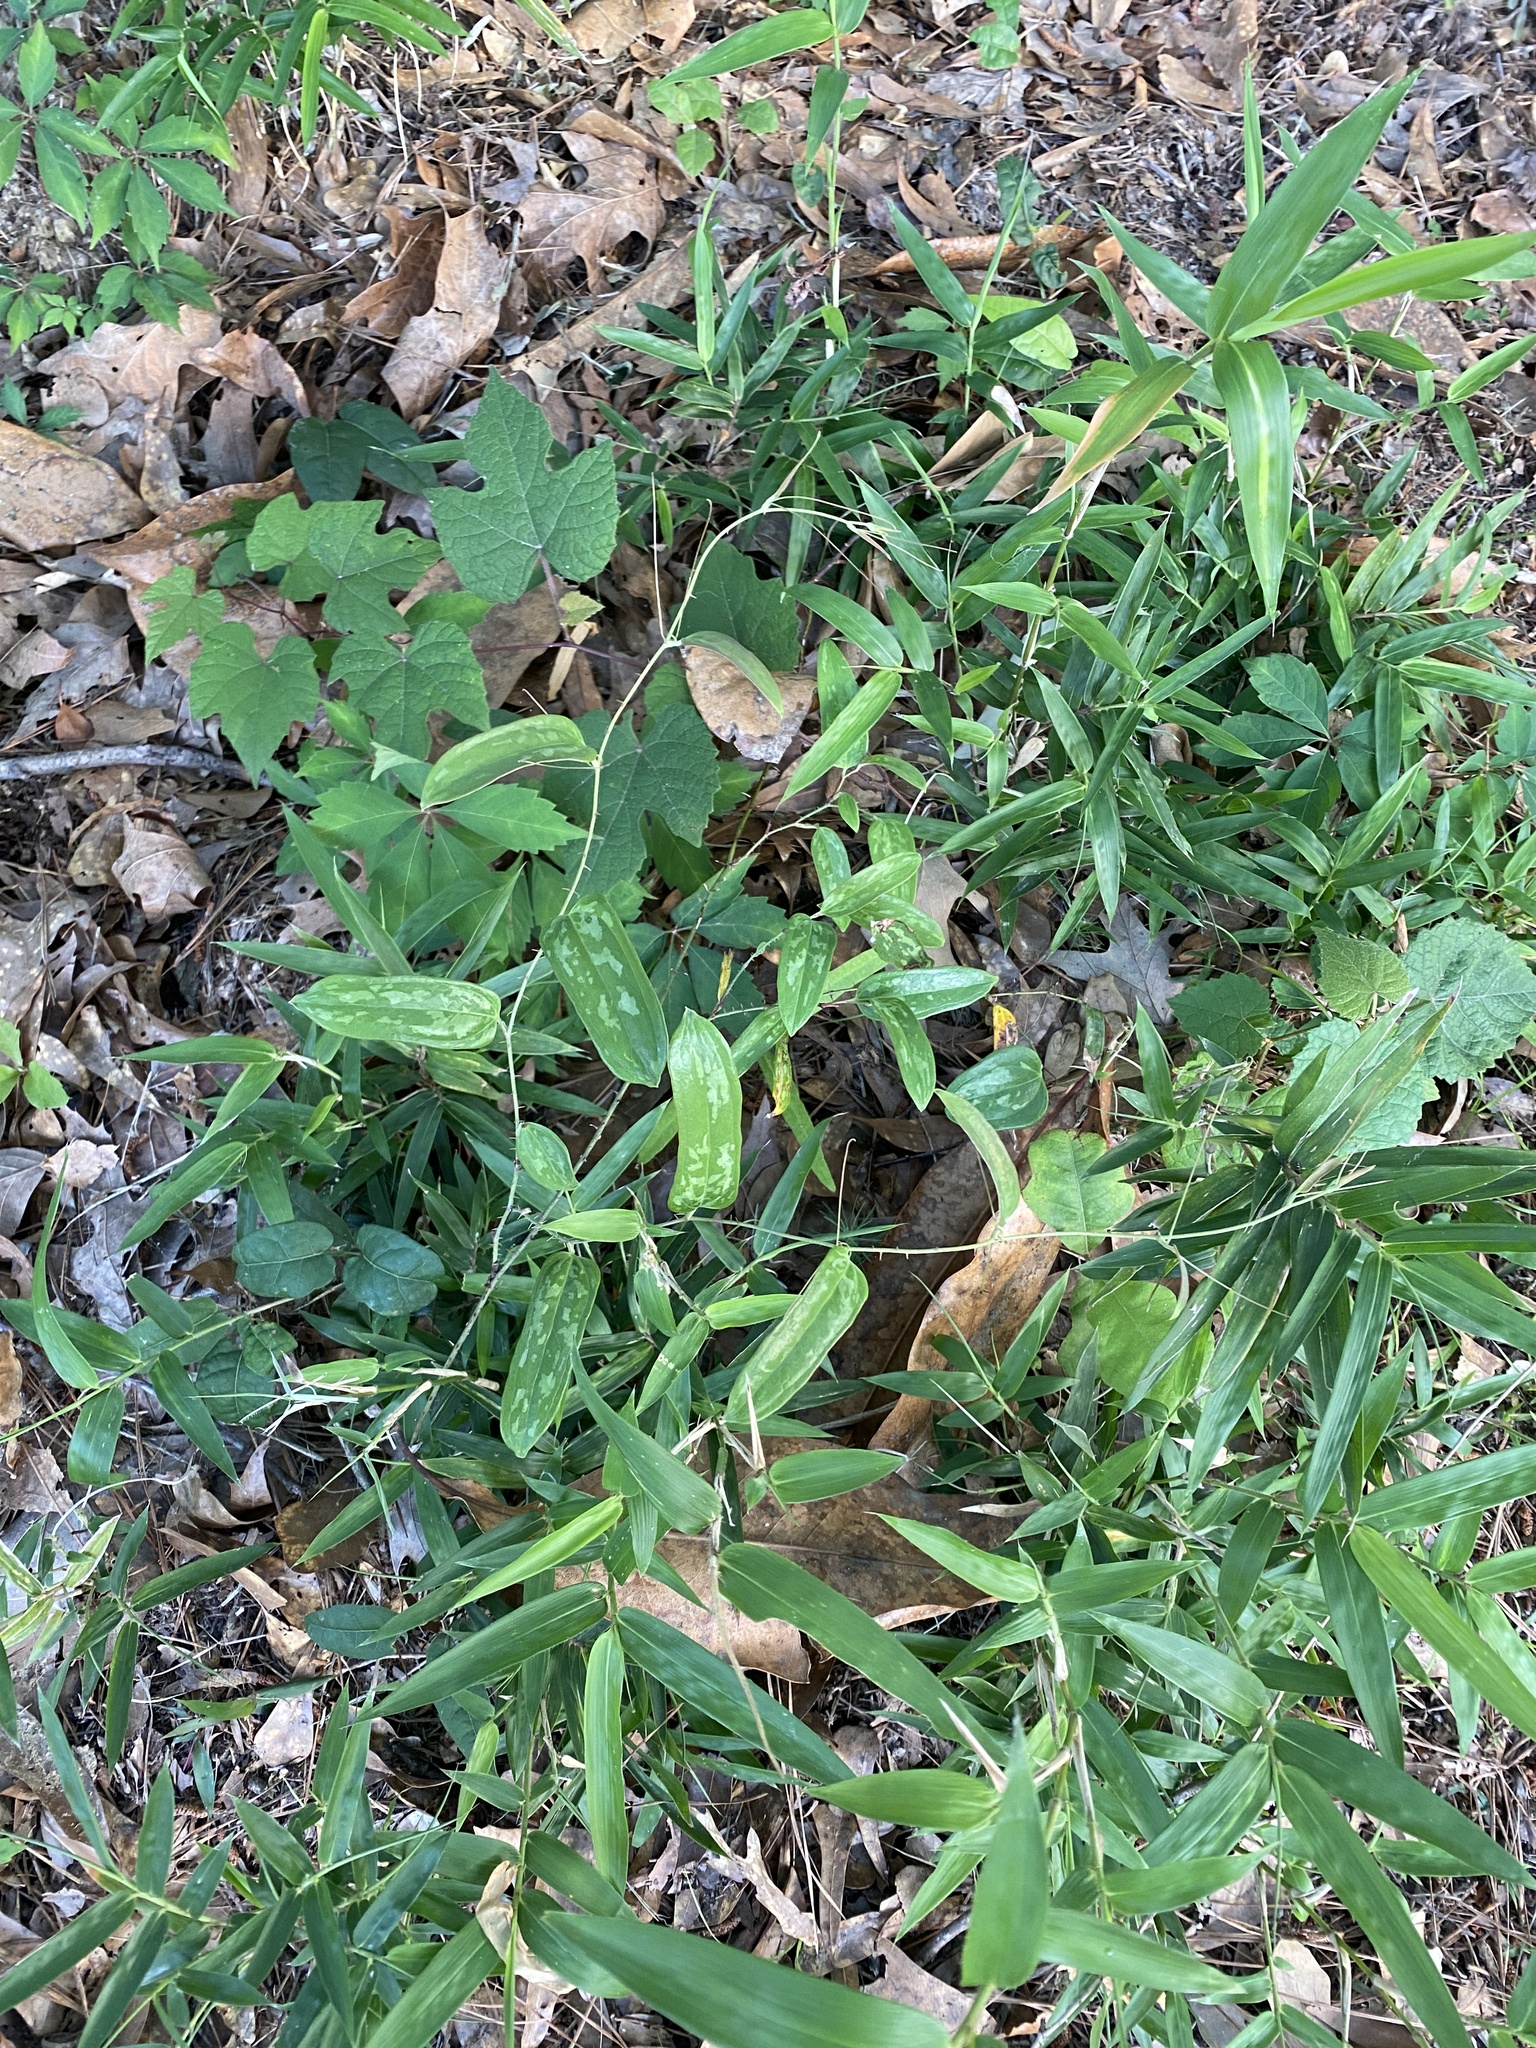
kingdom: Plantae
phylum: Tracheophyta
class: Liliopsida
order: Liliales
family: Smilacaceae
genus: Smilax
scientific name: Smilax glauca
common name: Cat greenbrier
